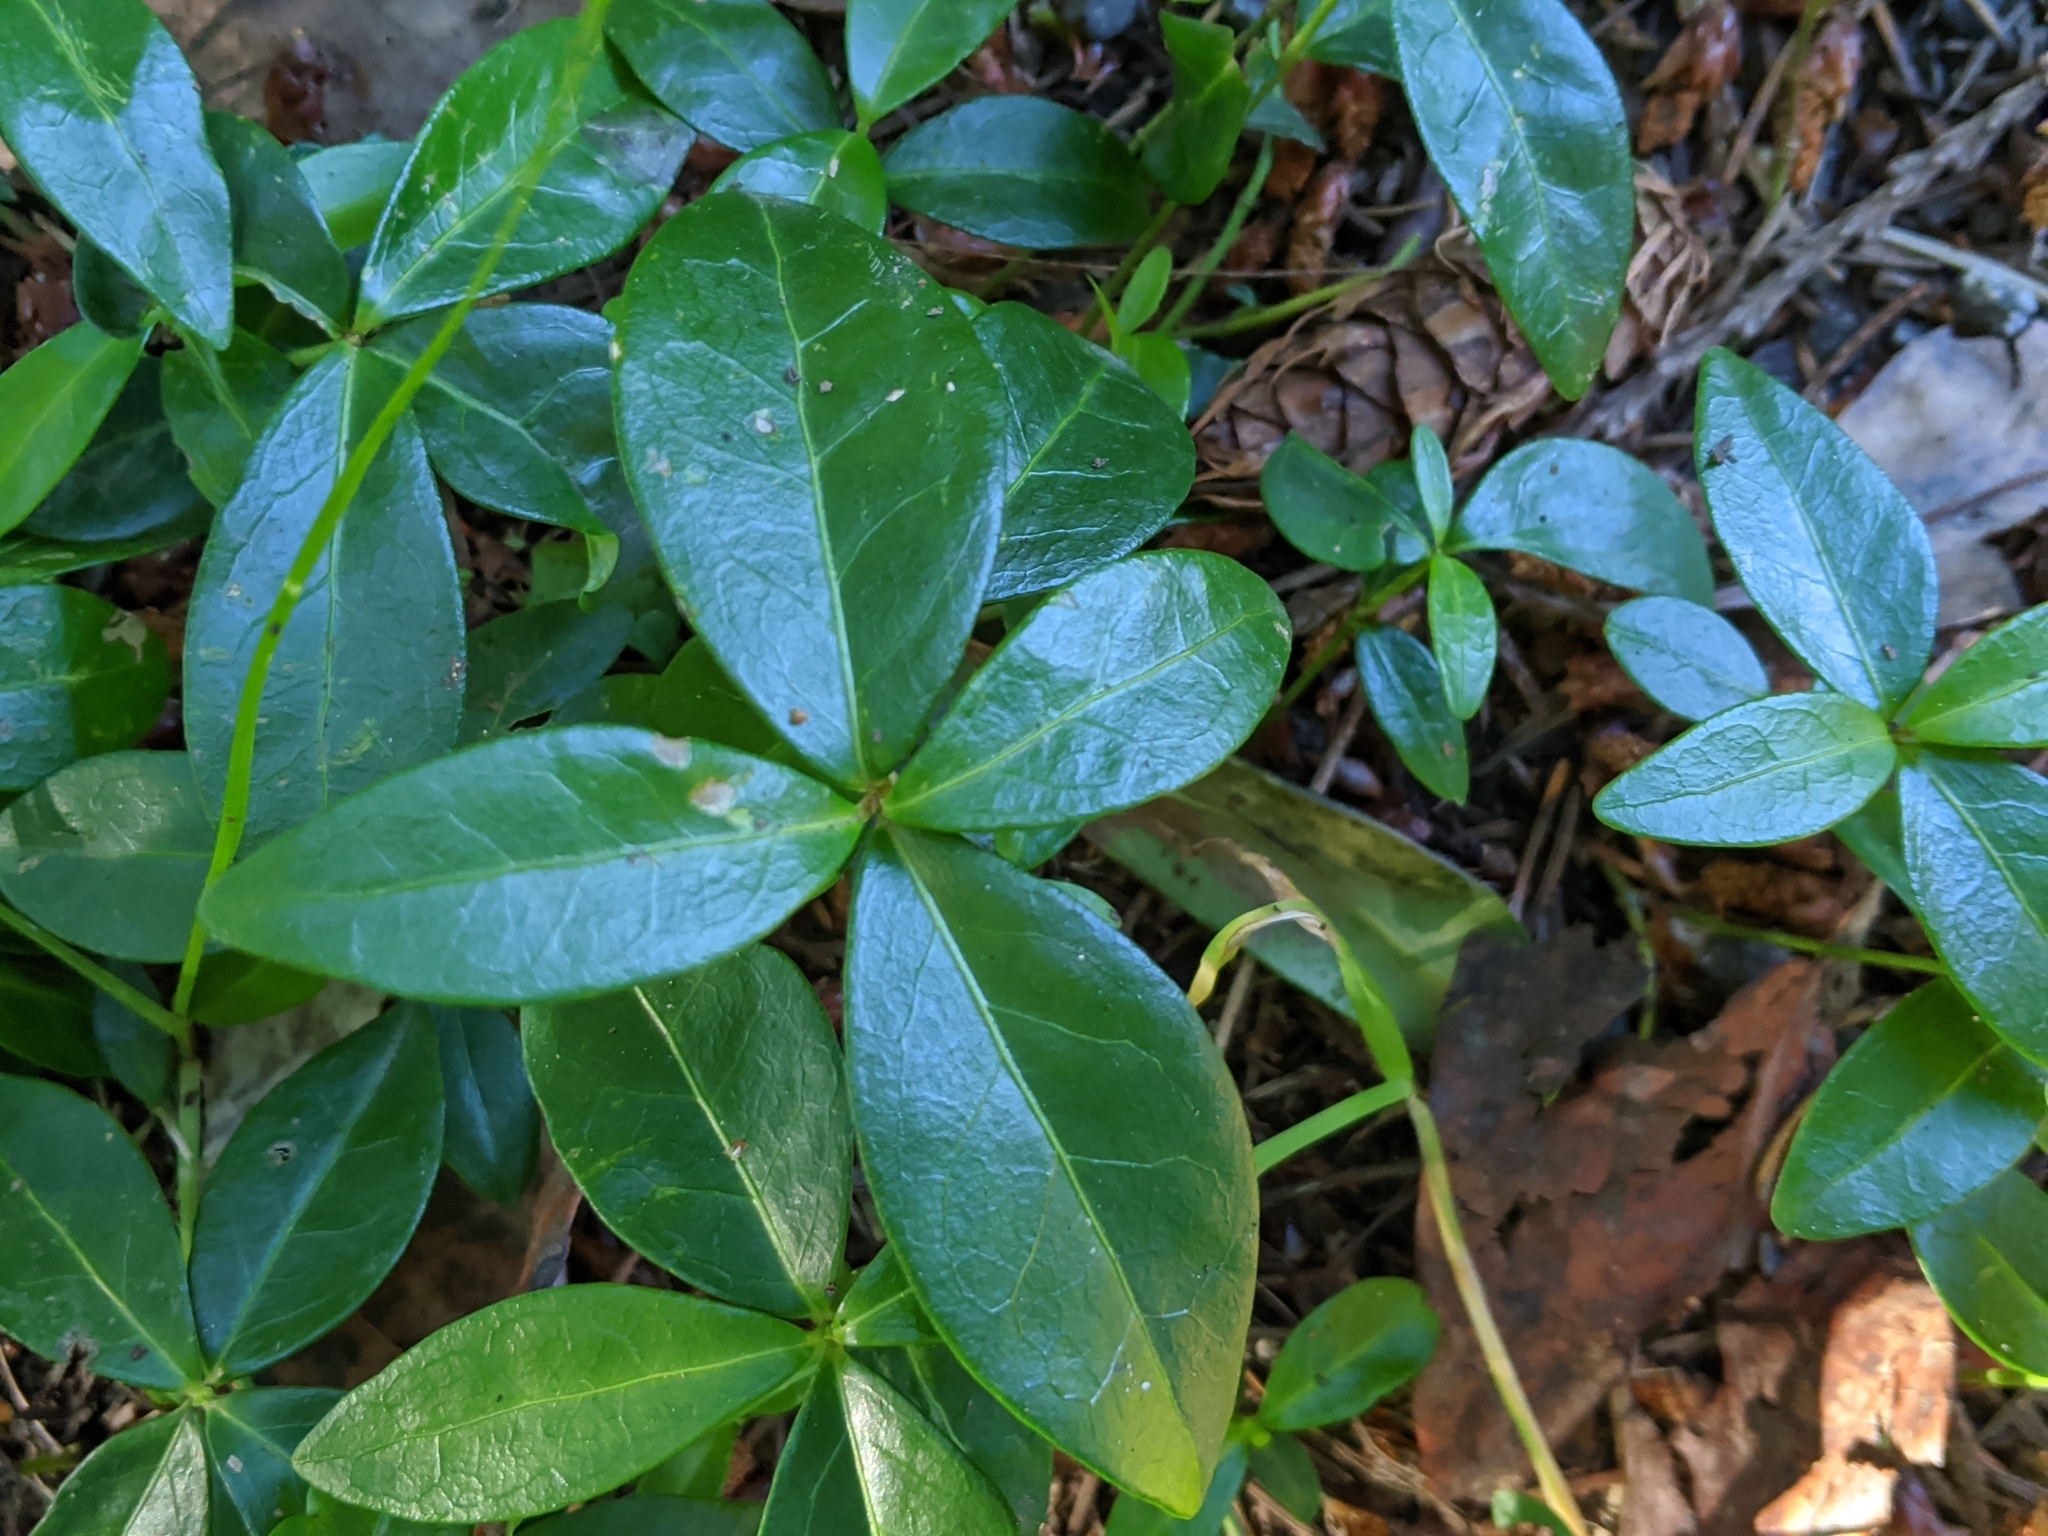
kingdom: Plantae
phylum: Tracheophyta
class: Magnoliopsida
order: Gentianales
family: Apocynaceae
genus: Vinca
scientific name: Vinca minor
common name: Lesser periwinkle
